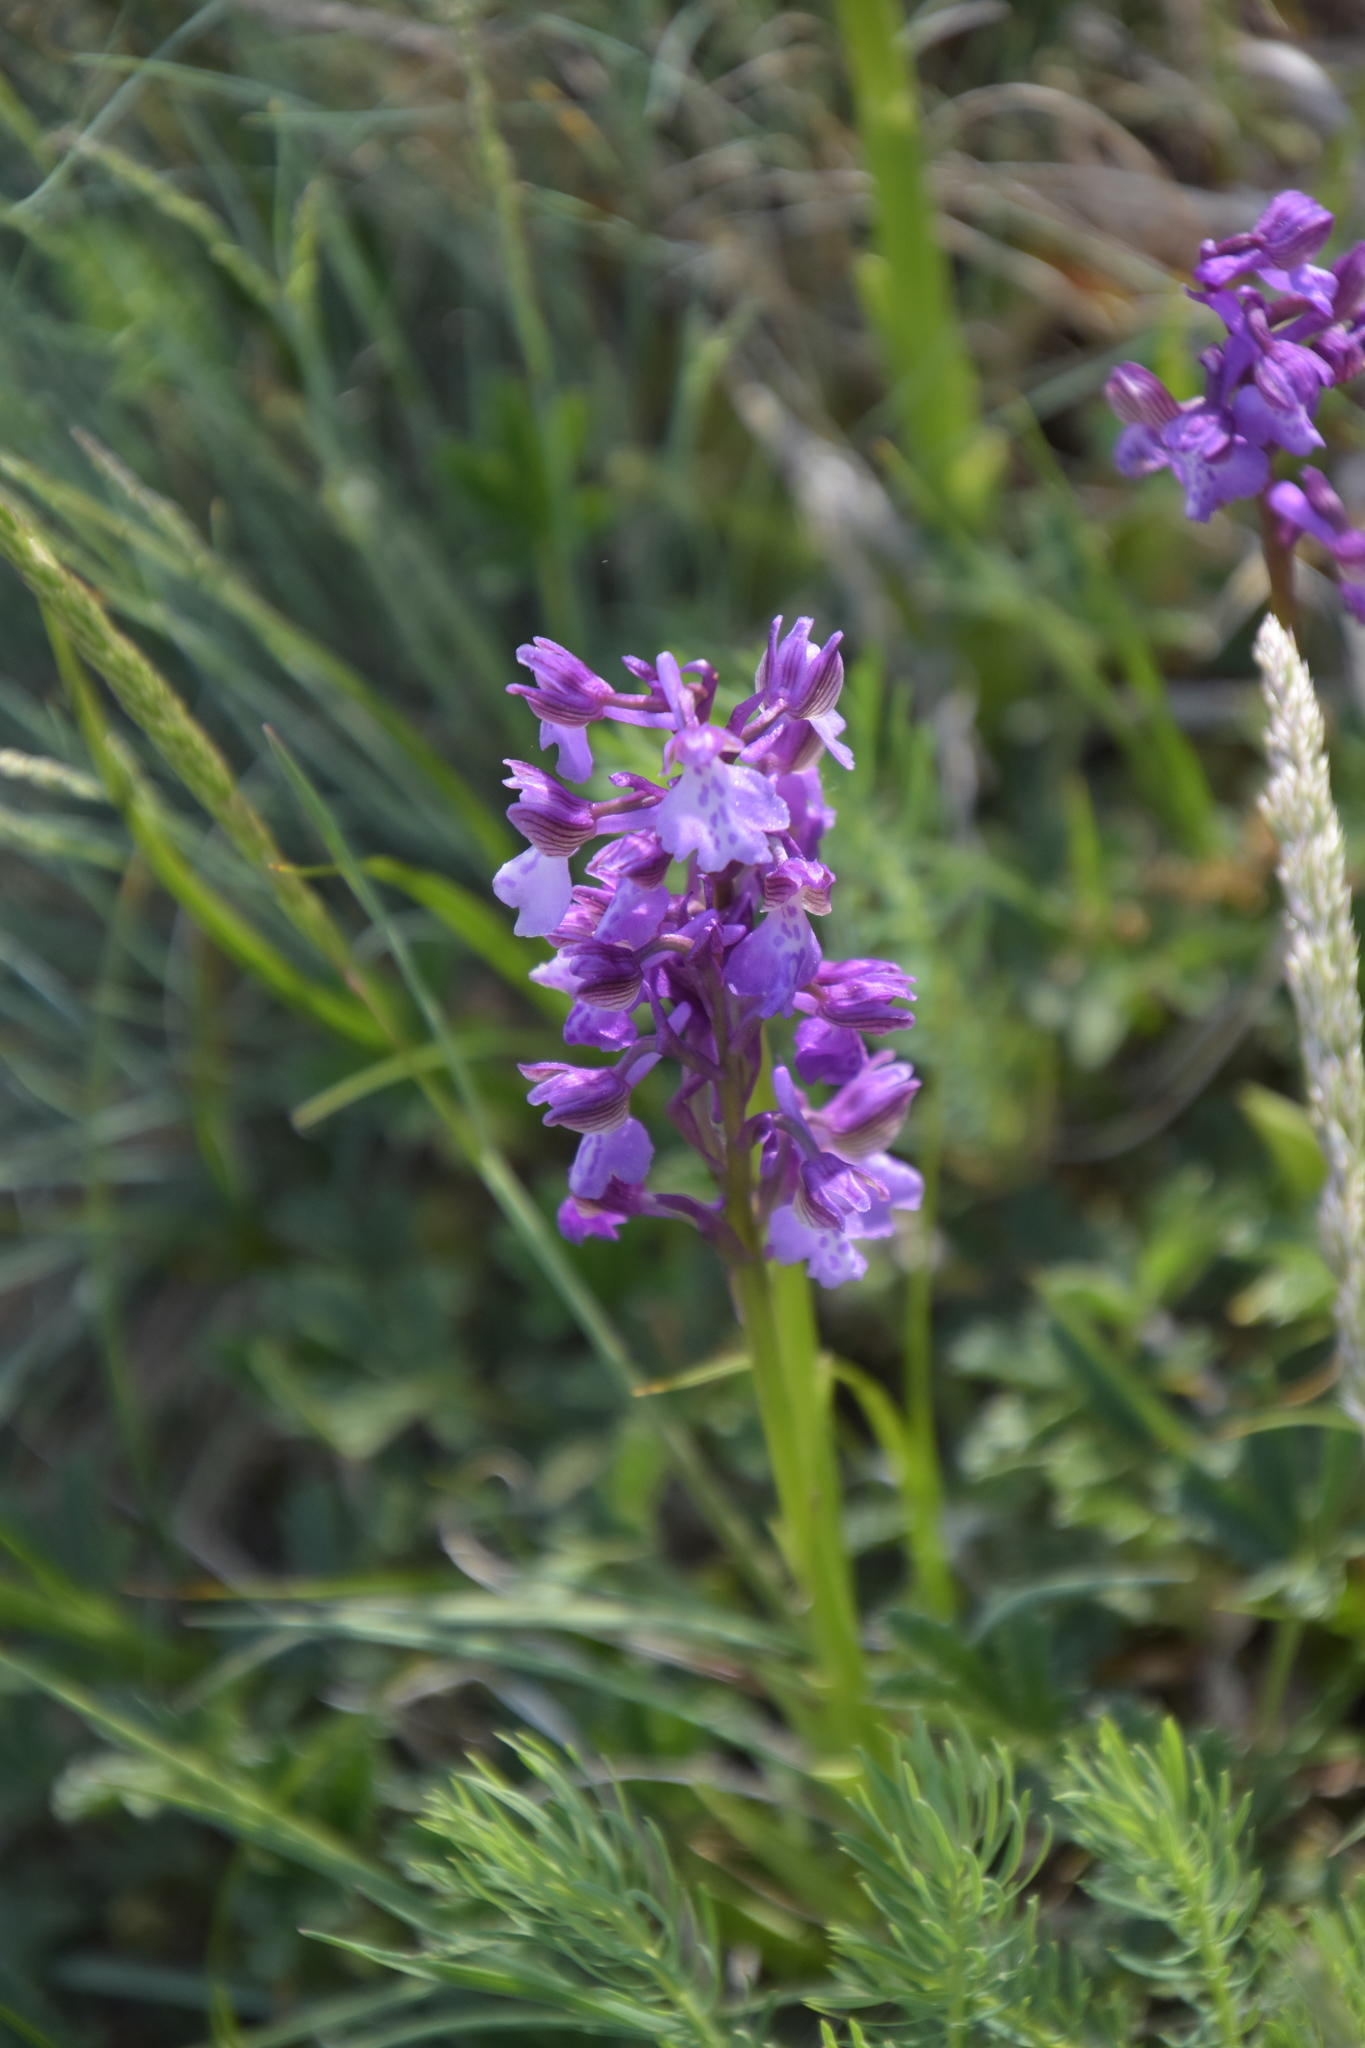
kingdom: Plantae
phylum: Tracheophyta
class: Liliopsida
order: Asparagales
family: Orchidaceae
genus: Anacamptis
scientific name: Anacamptis morio
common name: Green-winged orchid
